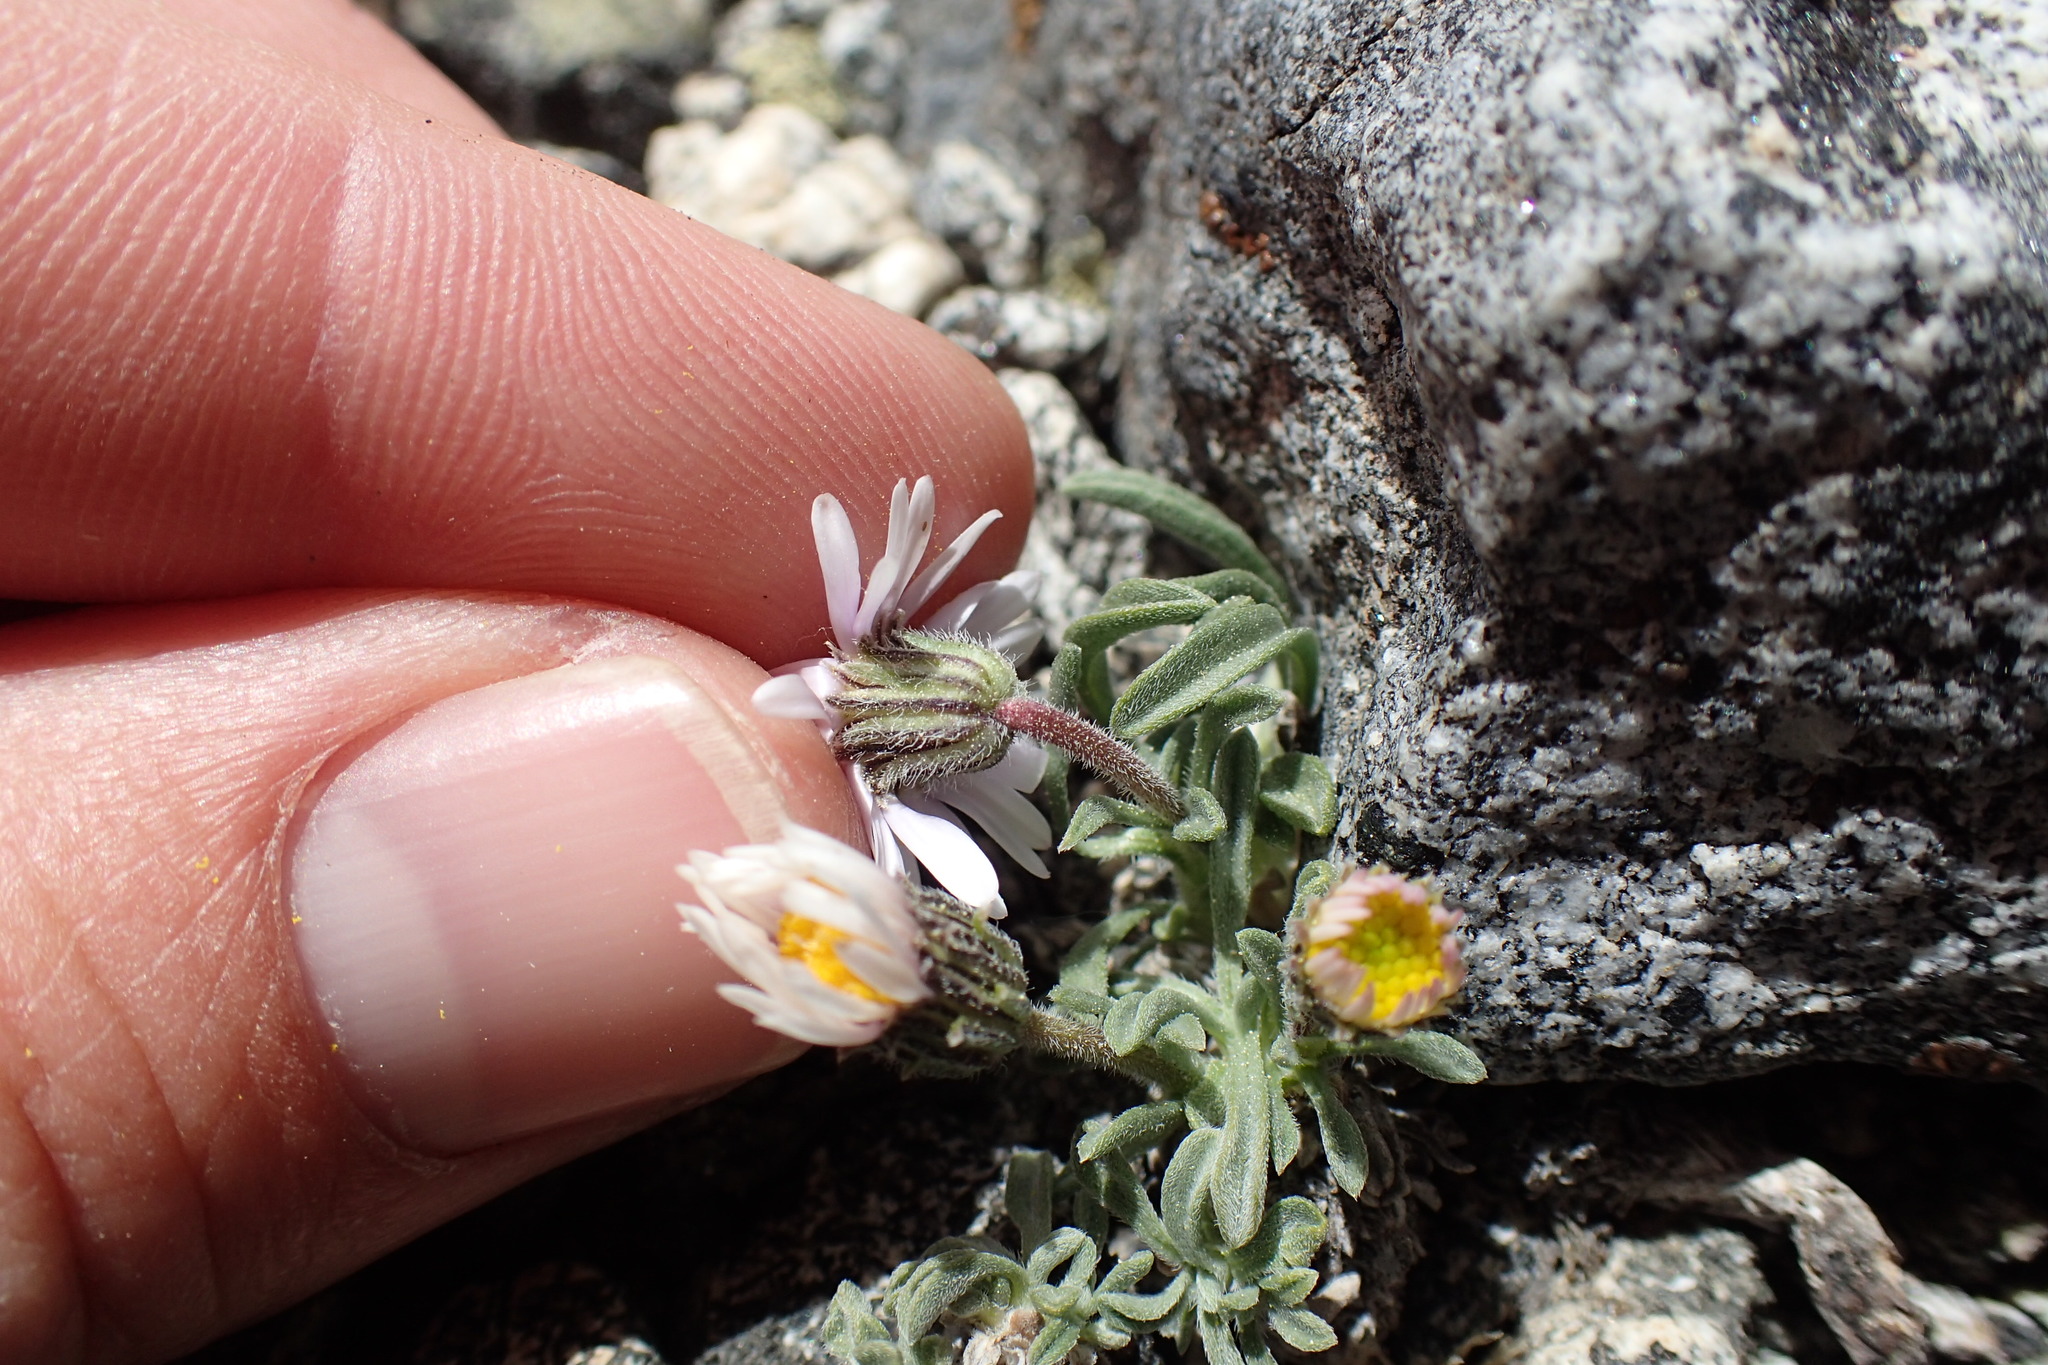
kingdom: Plantae
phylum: Tracheophyta
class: Magnoliopsida
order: Asterales
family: Asteraceae
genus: Erigeron
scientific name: Erigeron pygmaeus
